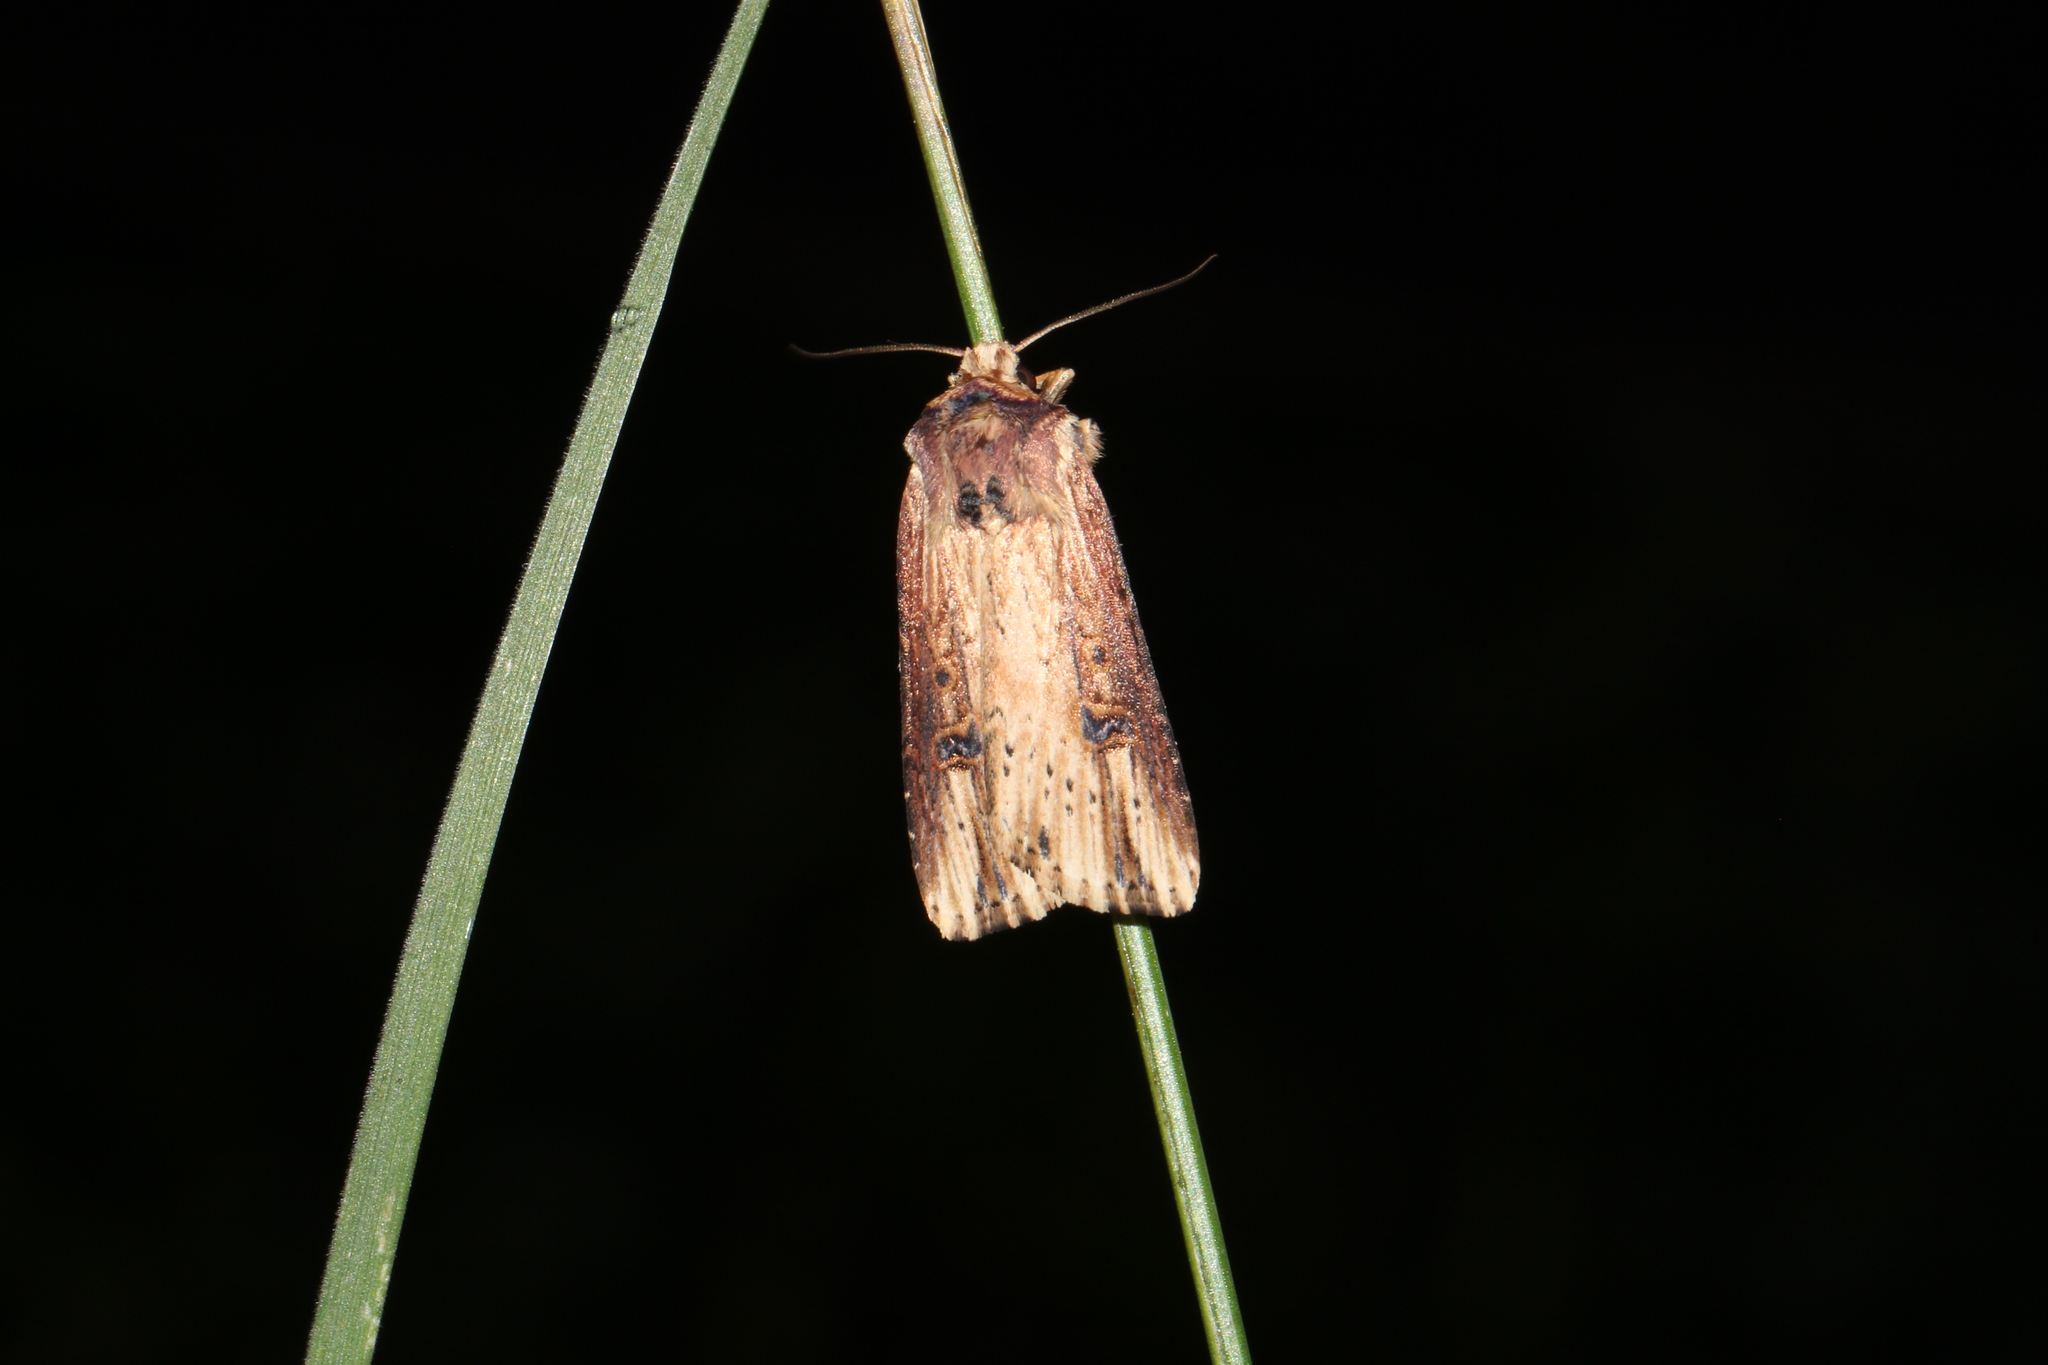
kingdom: Animalia
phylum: Arthropoda
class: Insecta
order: Lepidoptera
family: Noctuidae
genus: Axylia
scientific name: Axylia putris
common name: Flame
